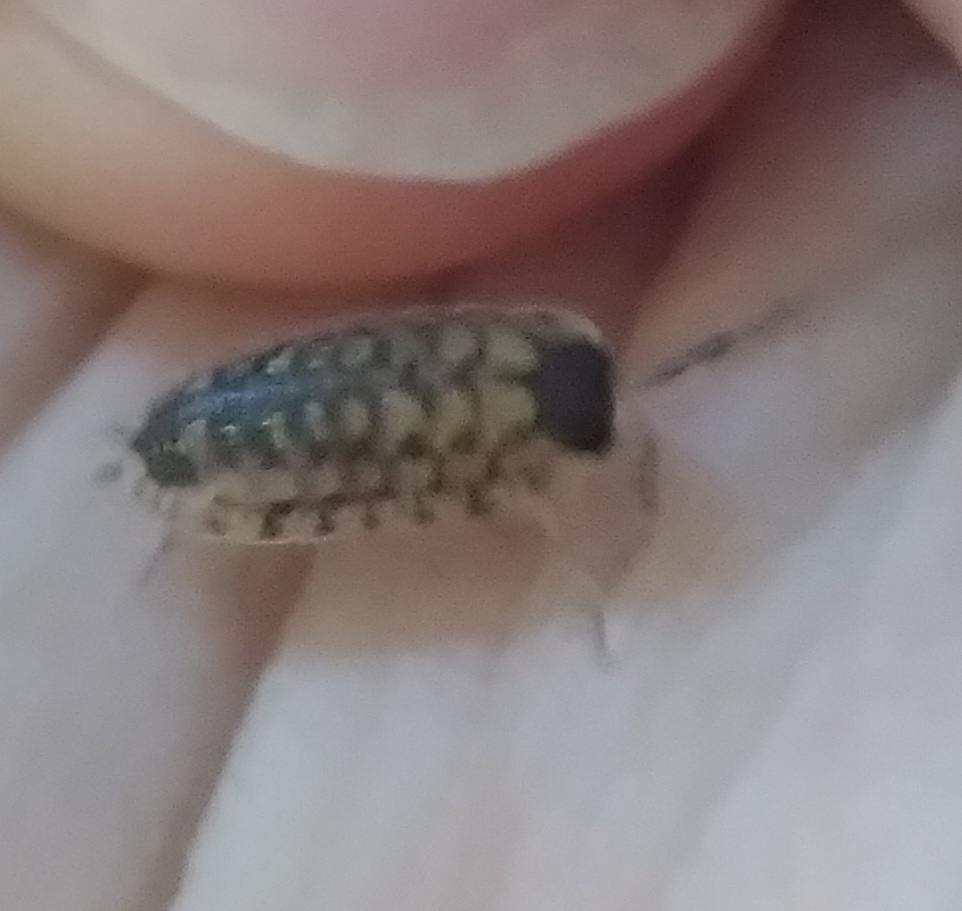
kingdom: Animalia
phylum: Arthropoda
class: Malacostraca
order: Isopoda
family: Porcellionidae
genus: Porcellio
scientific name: Porcellio spinicornis
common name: Painted woodlouse
